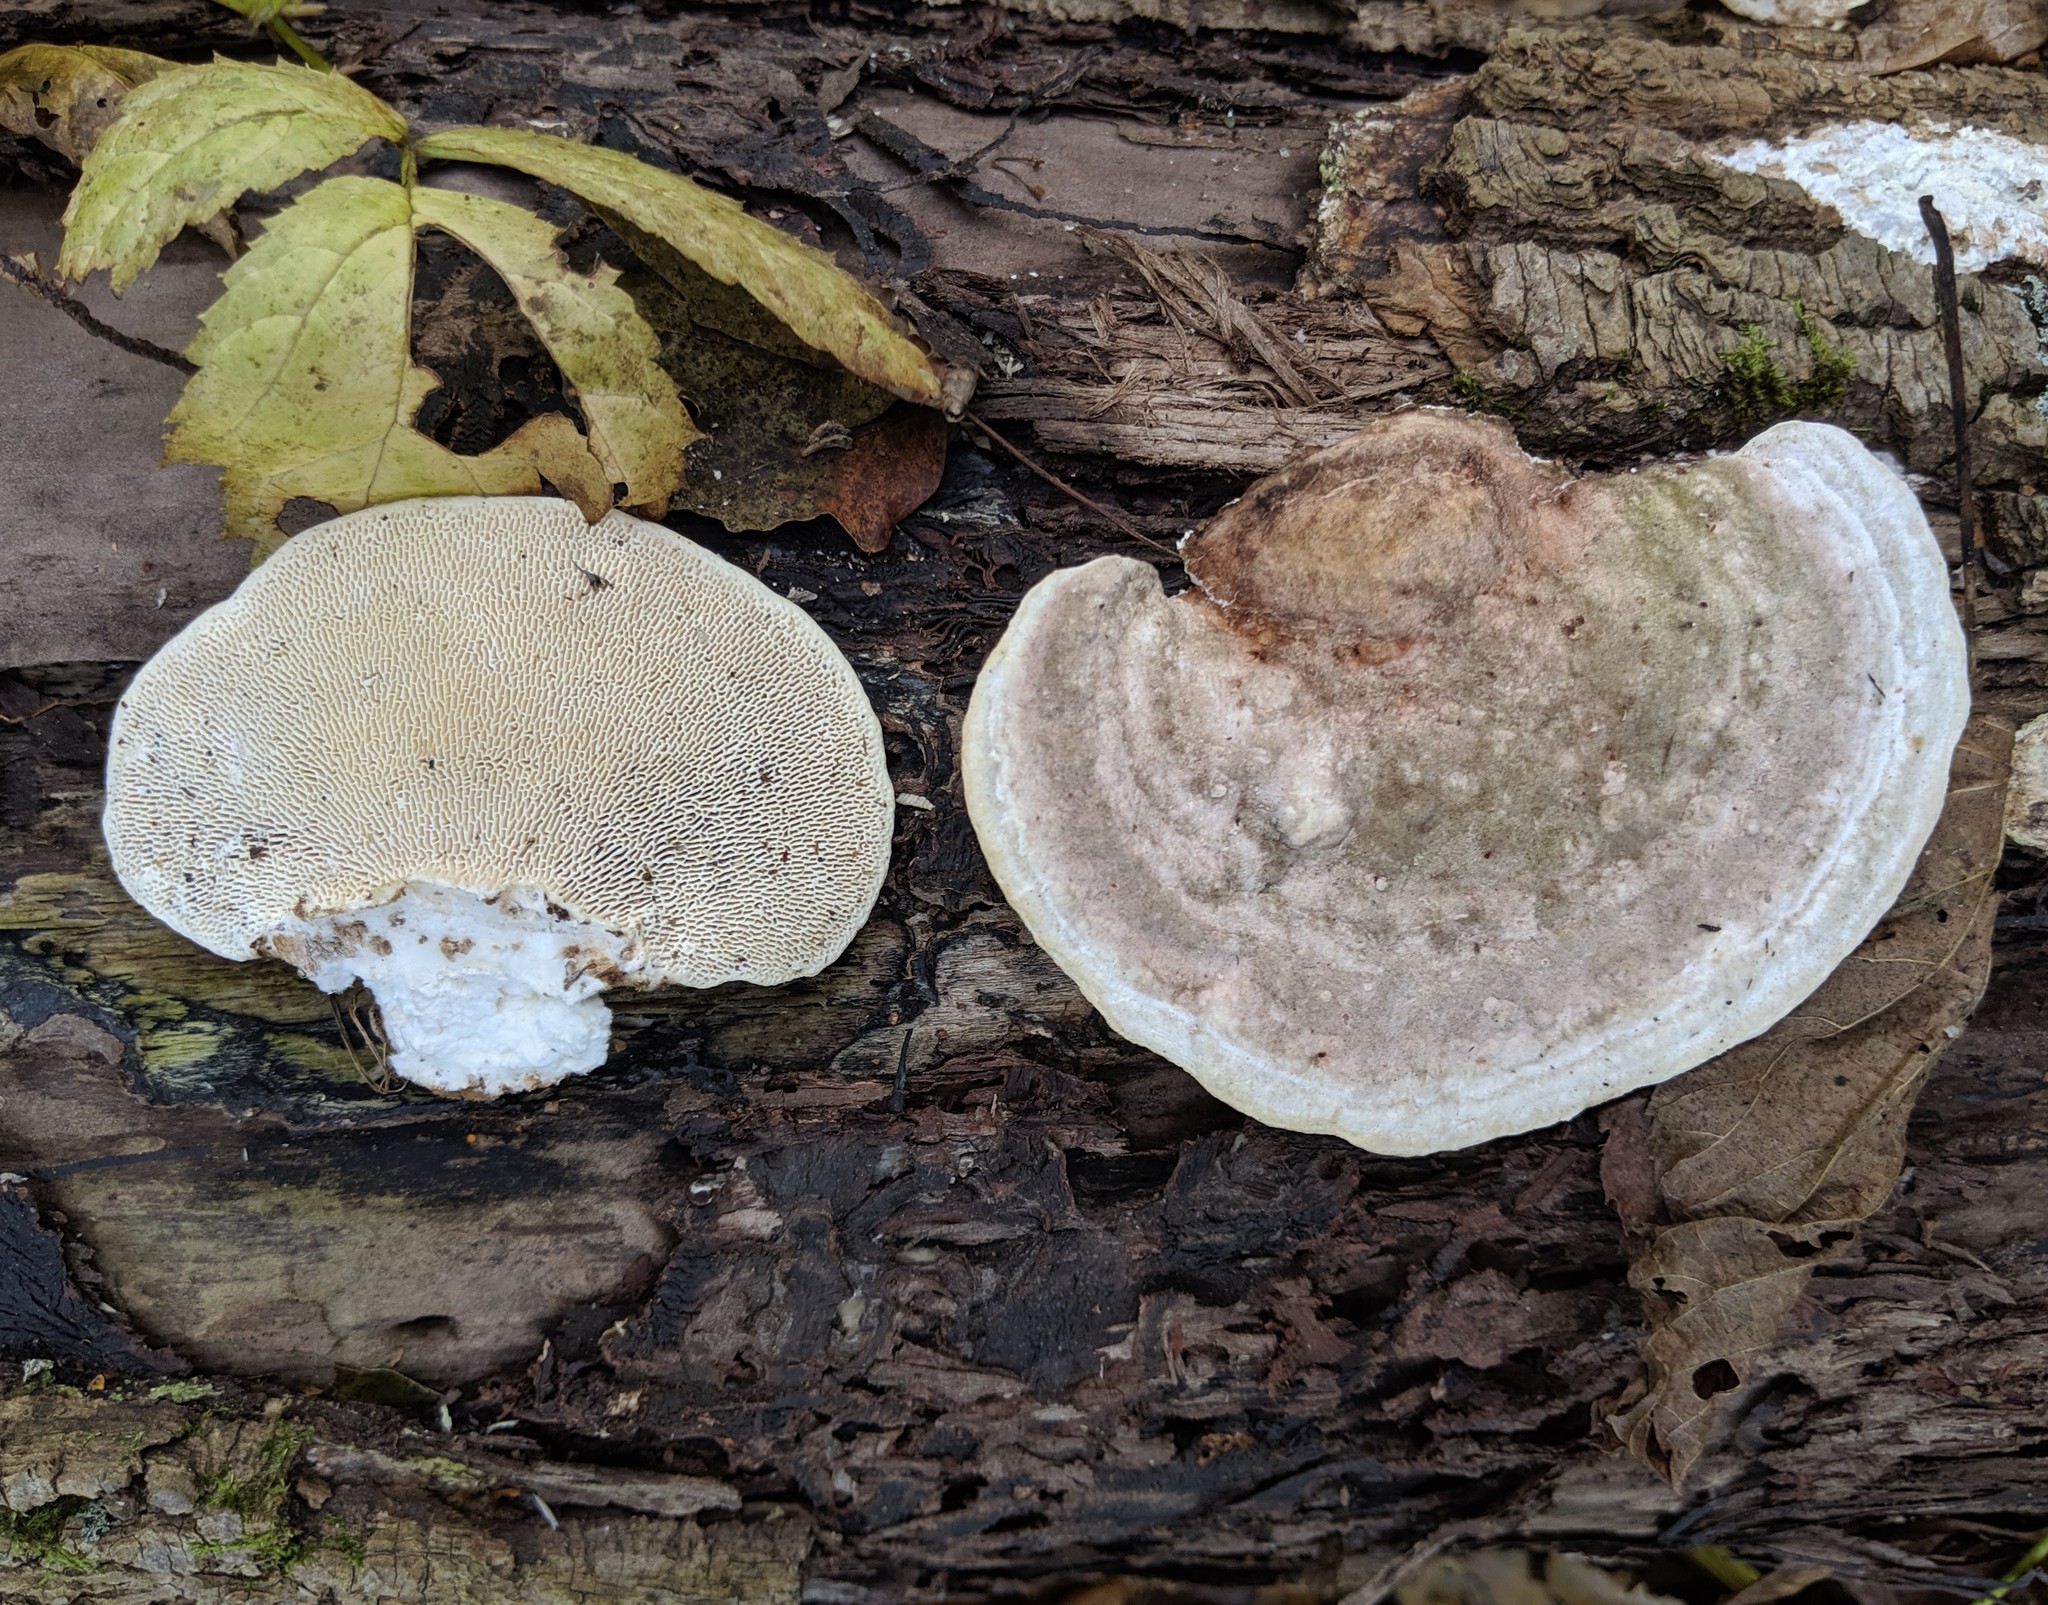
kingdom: Fungi
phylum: Basidiomycota
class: Agaricomycetes
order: Polyporales
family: Polyporaceae
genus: Trametes
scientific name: Trametes gibbosa
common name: Lumpy bracket
